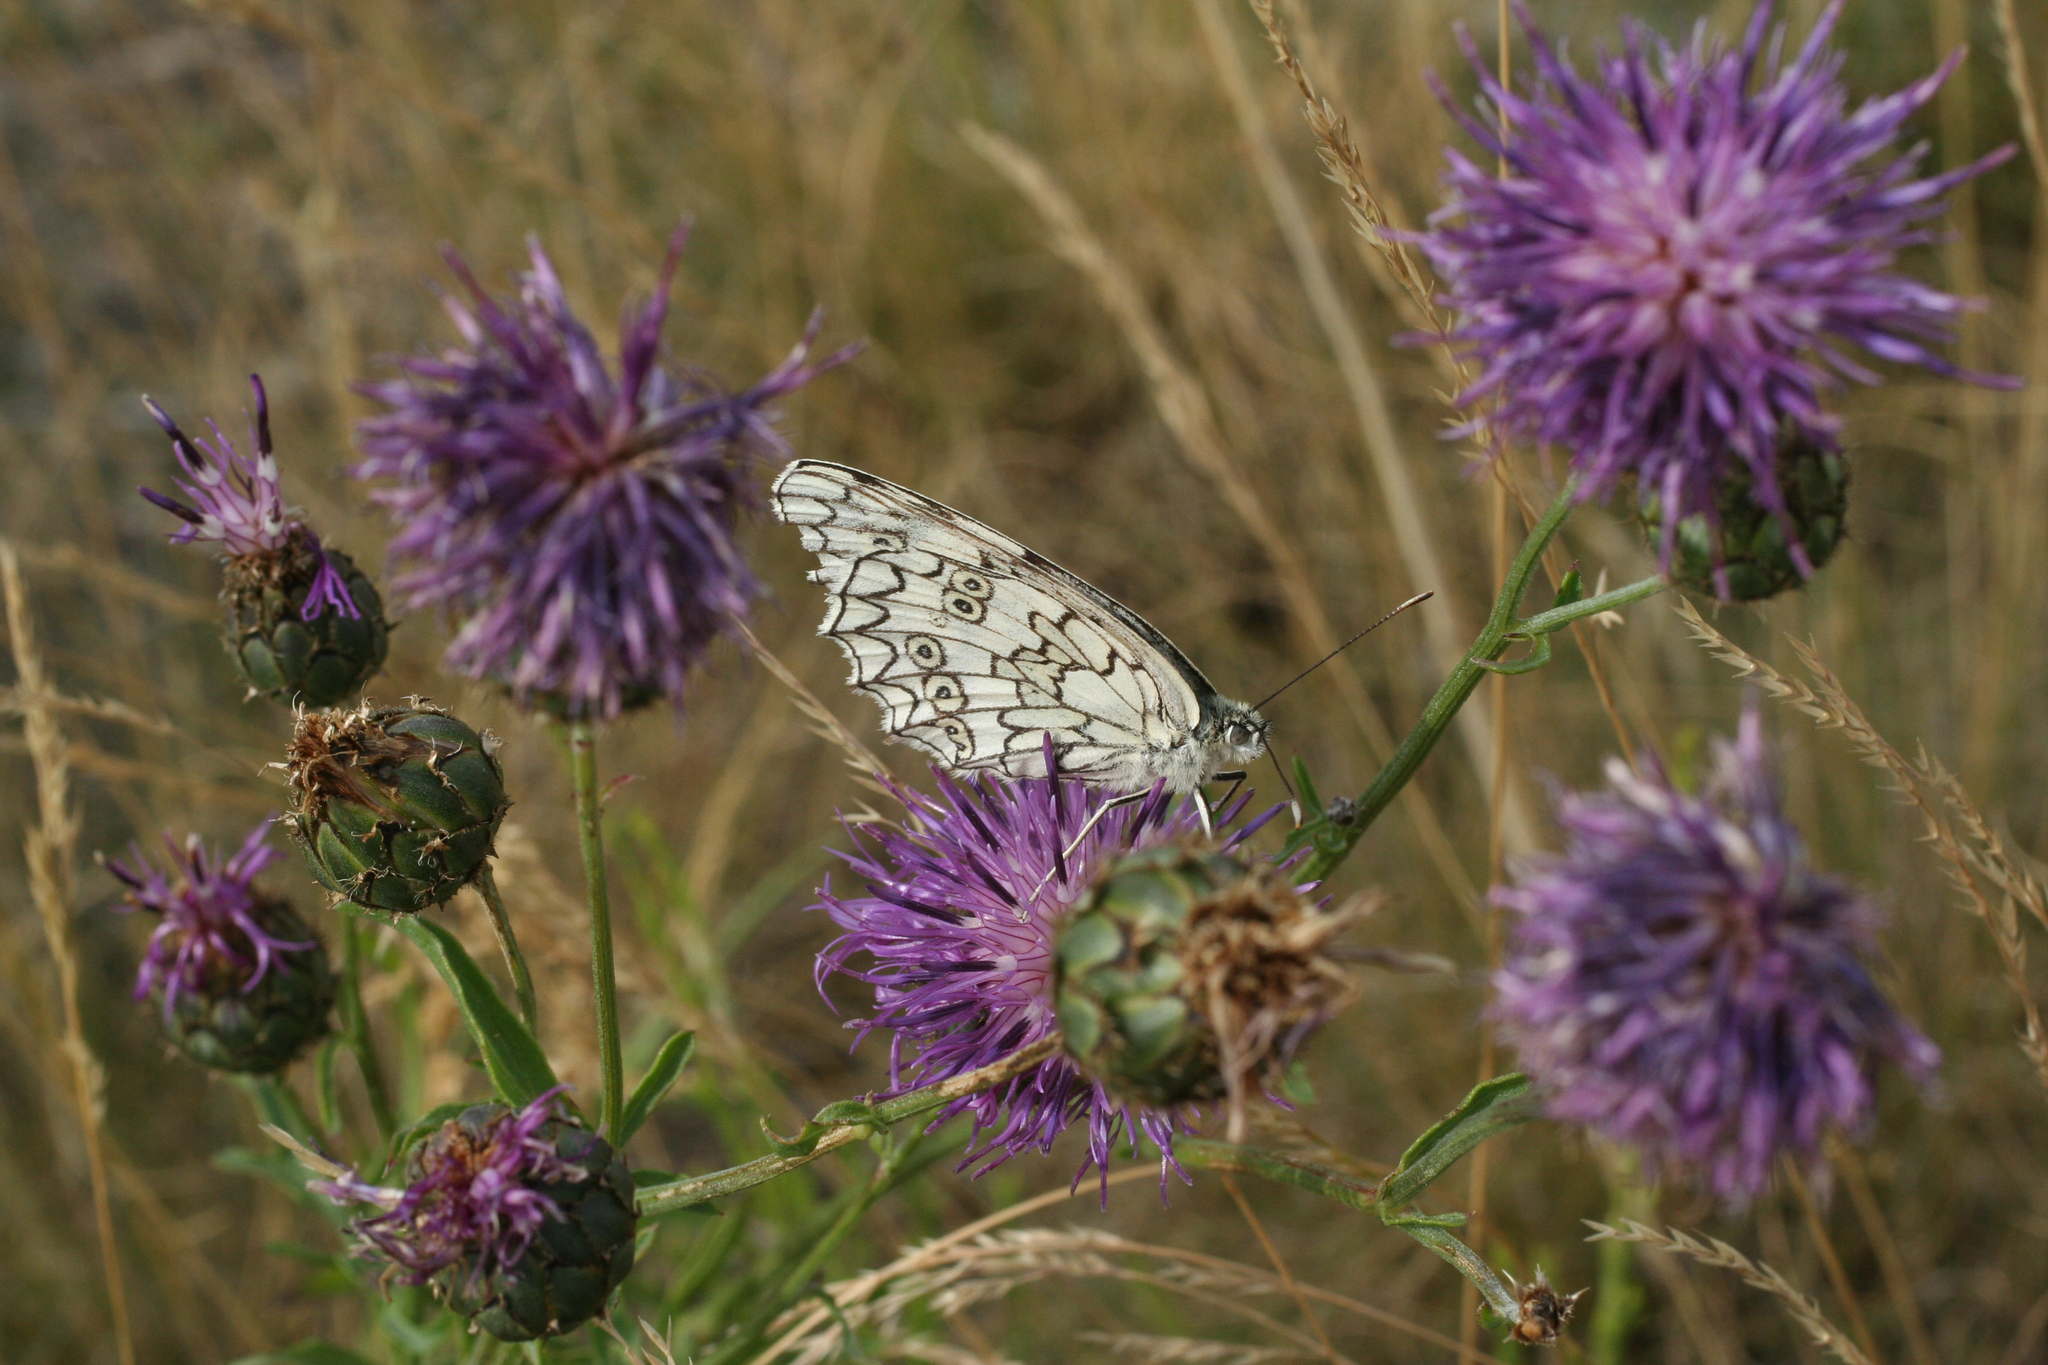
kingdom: Animalia
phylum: Arthropoda
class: Insecta
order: Lepidoptera
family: Nymphalidae
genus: Melanargia
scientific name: Melanargia japygia
